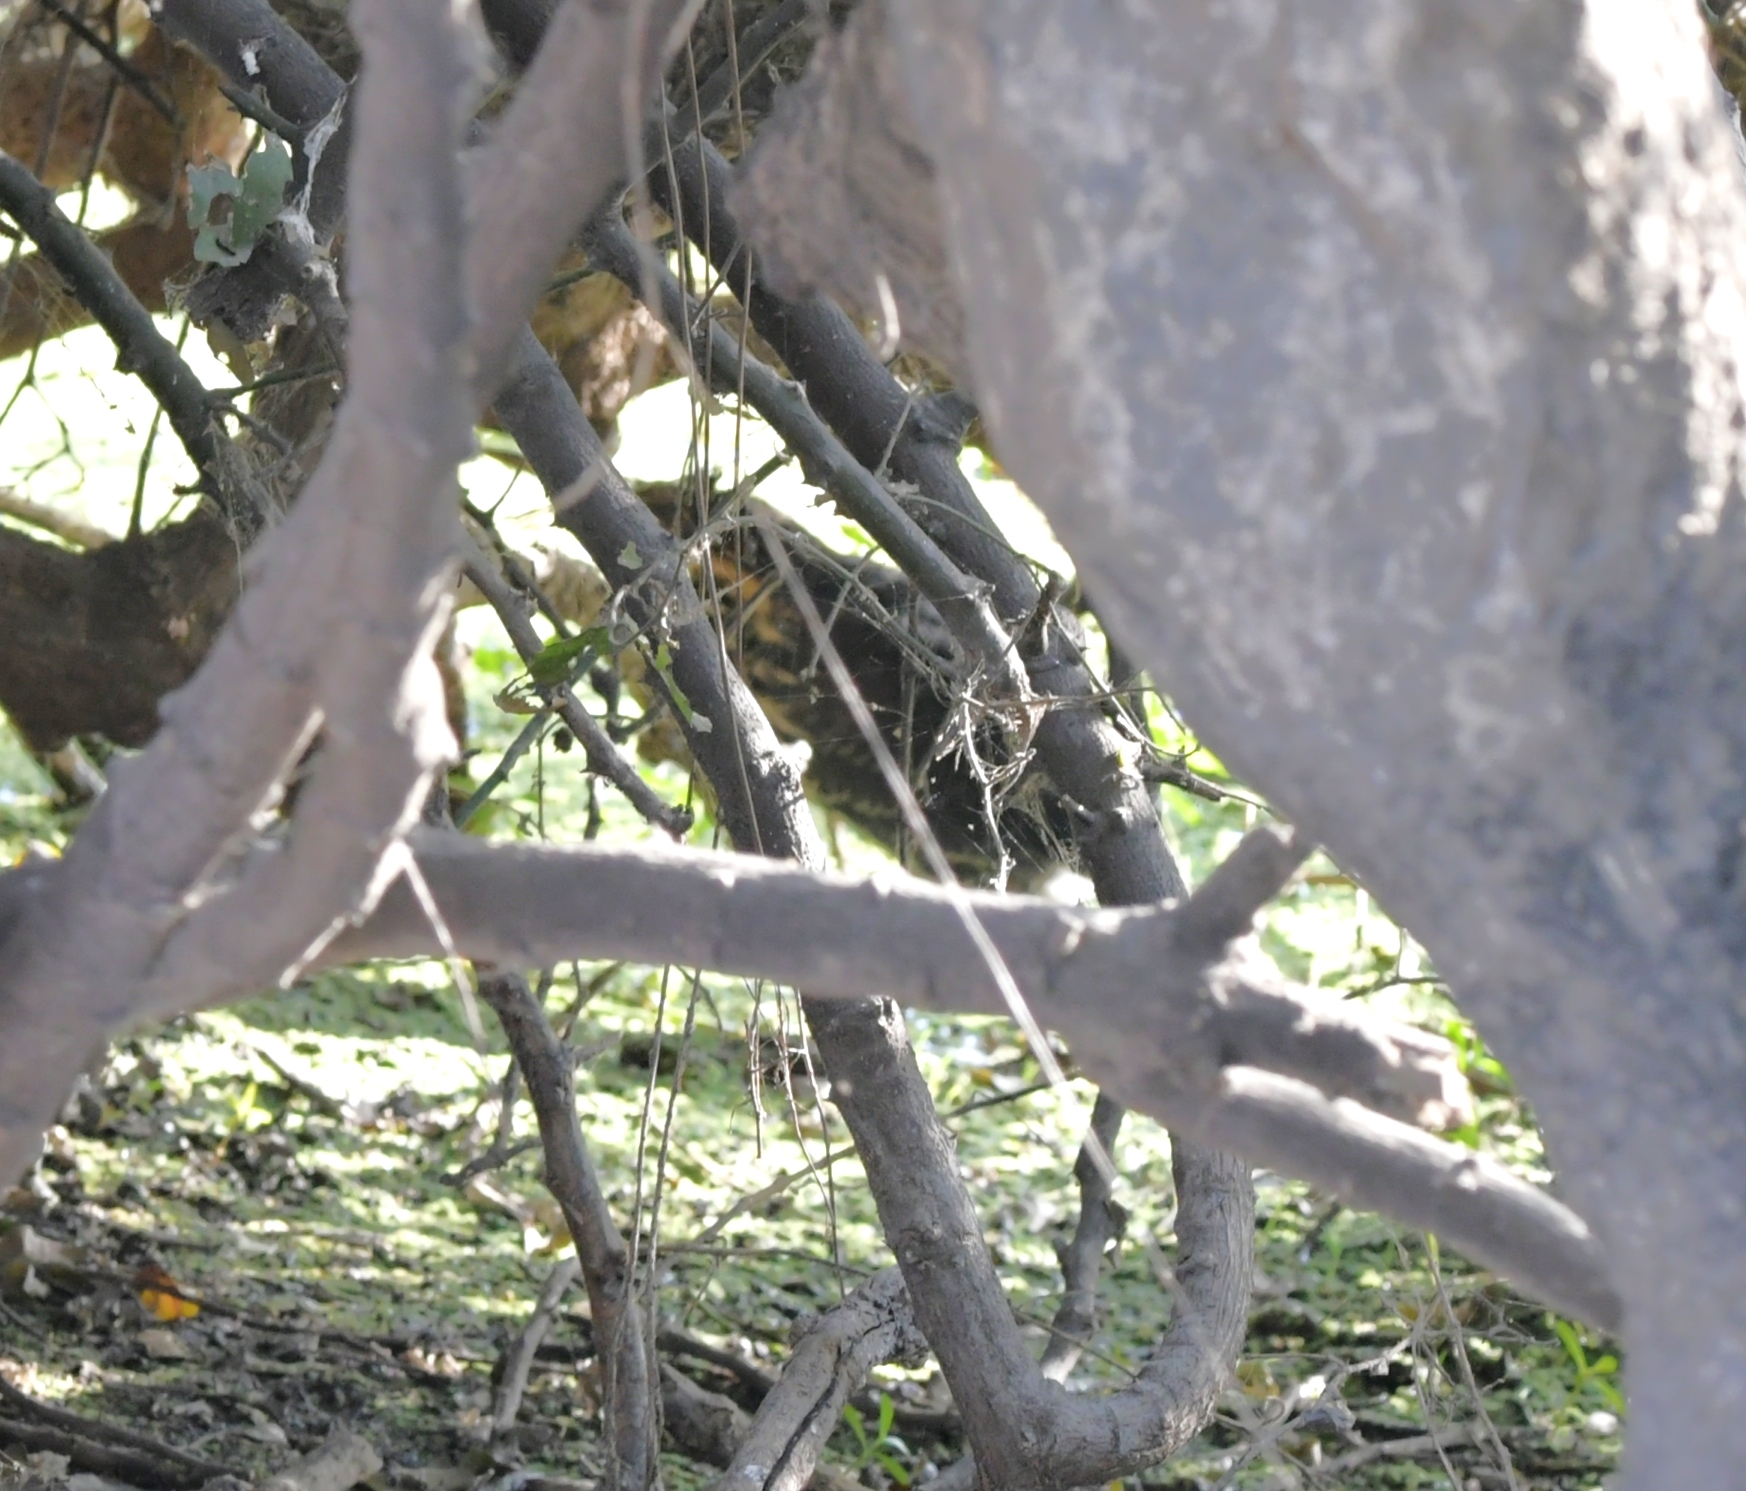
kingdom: Animalia
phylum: Chordata
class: Aves
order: Pelecaniformes
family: Ardeidae
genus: Dupetor
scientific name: Dupetor flavicollis
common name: Black bittern
